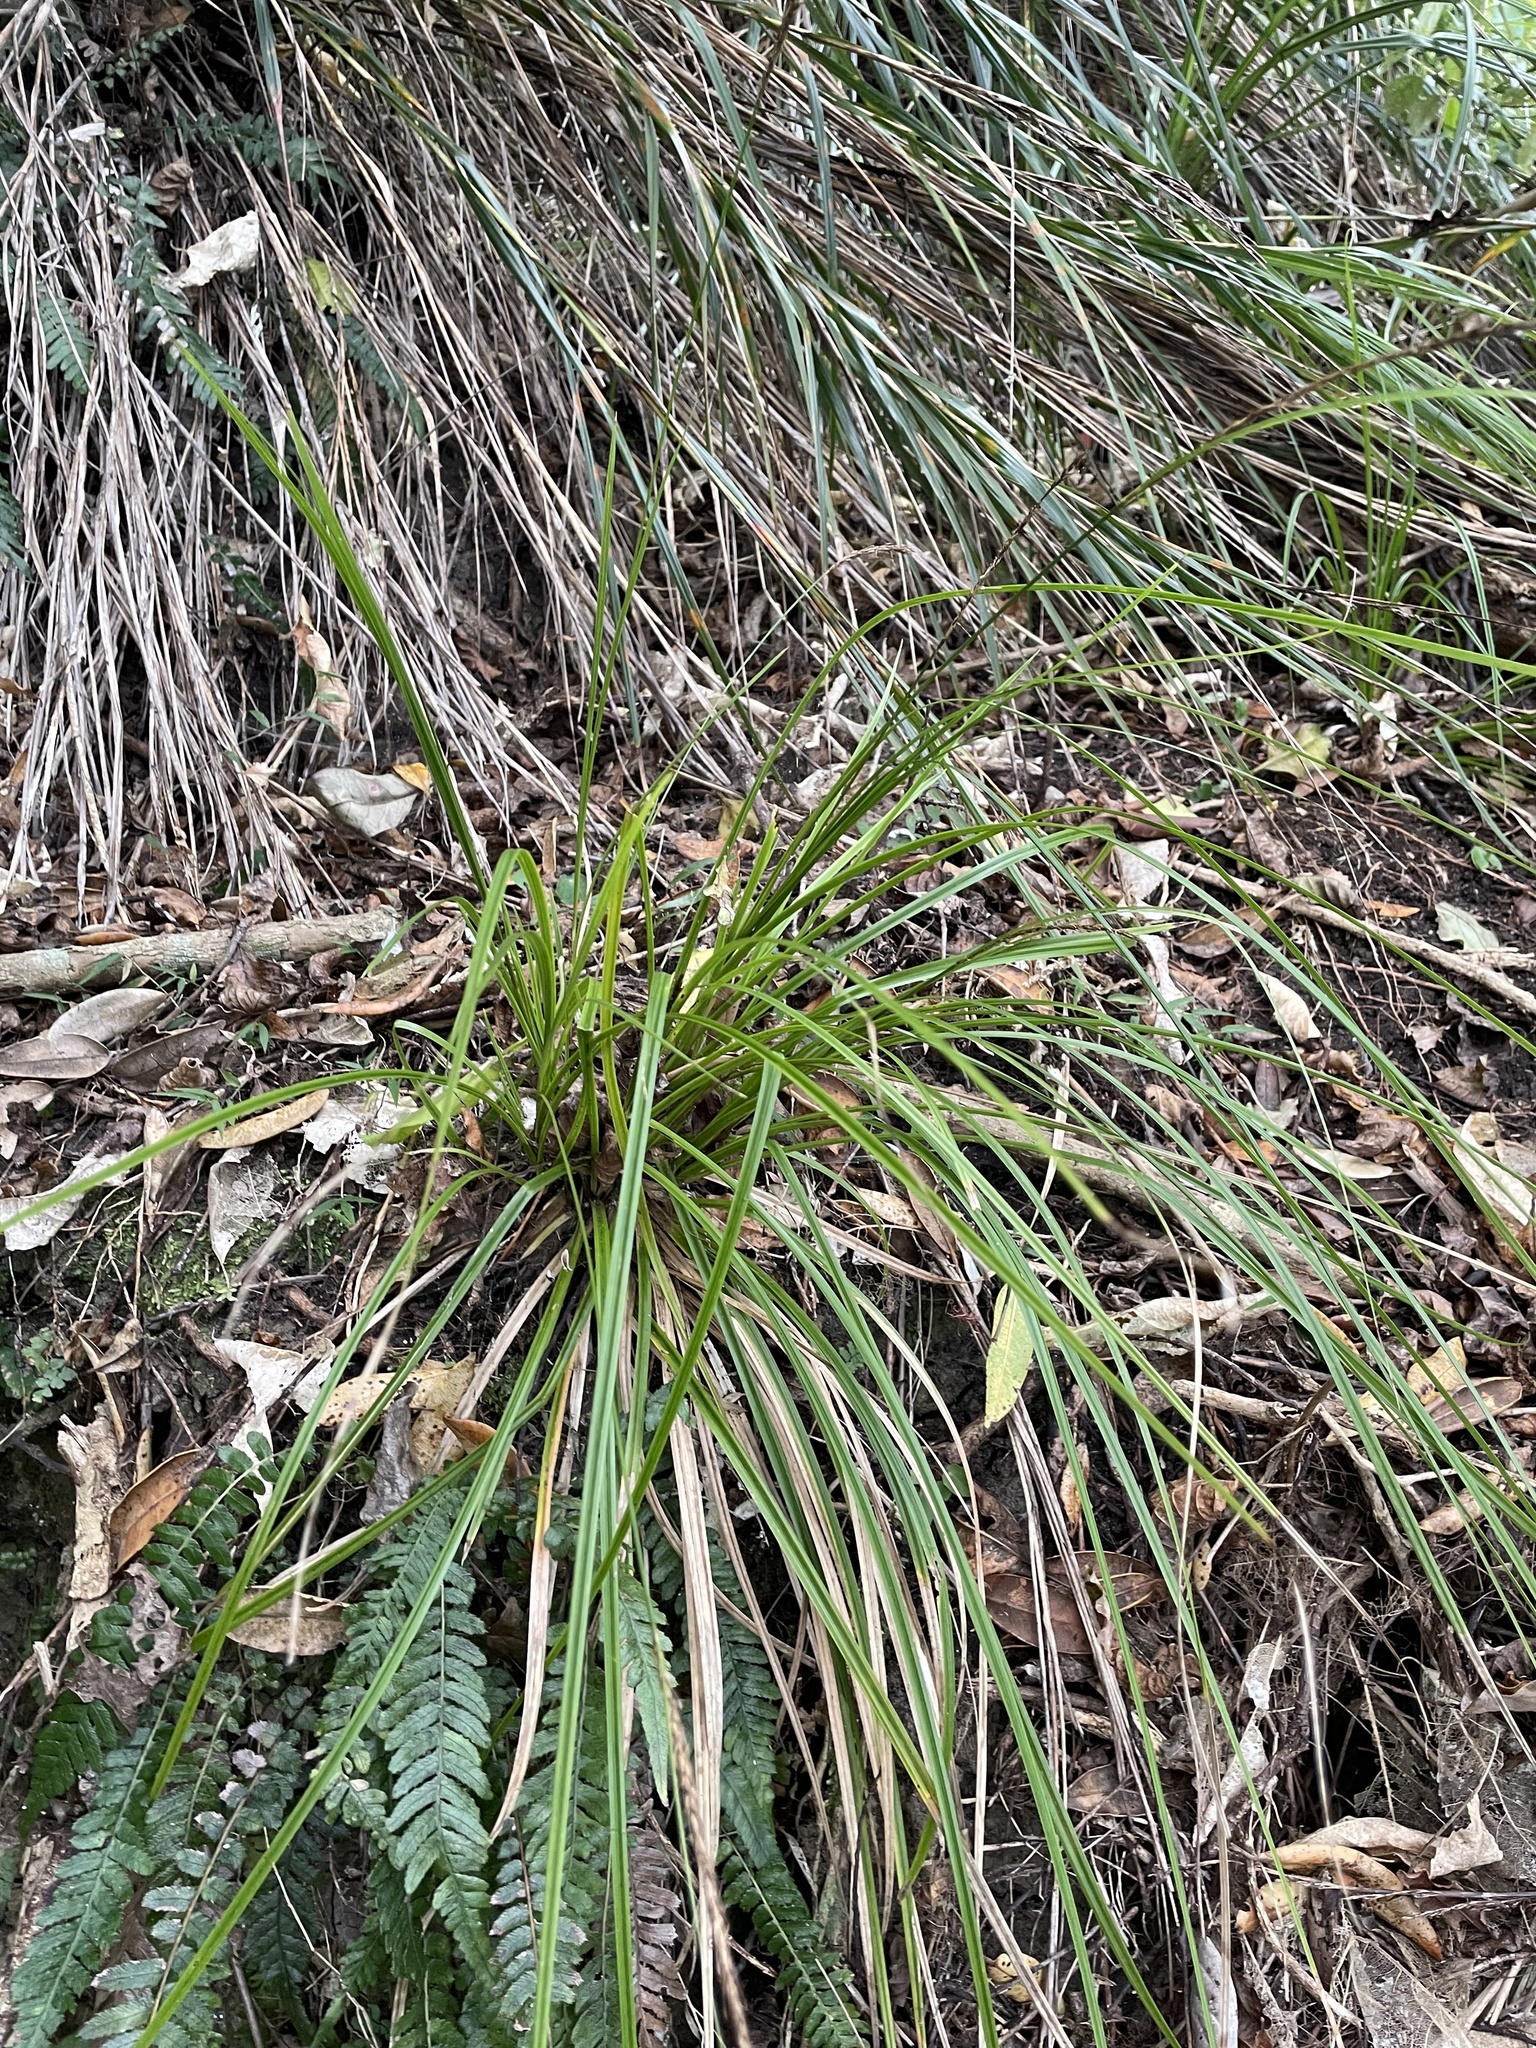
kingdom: Plantae
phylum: Tracheophyta
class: Liliopsida
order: Poales
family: Cyperaceae
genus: Carex
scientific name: Carex uncinata
